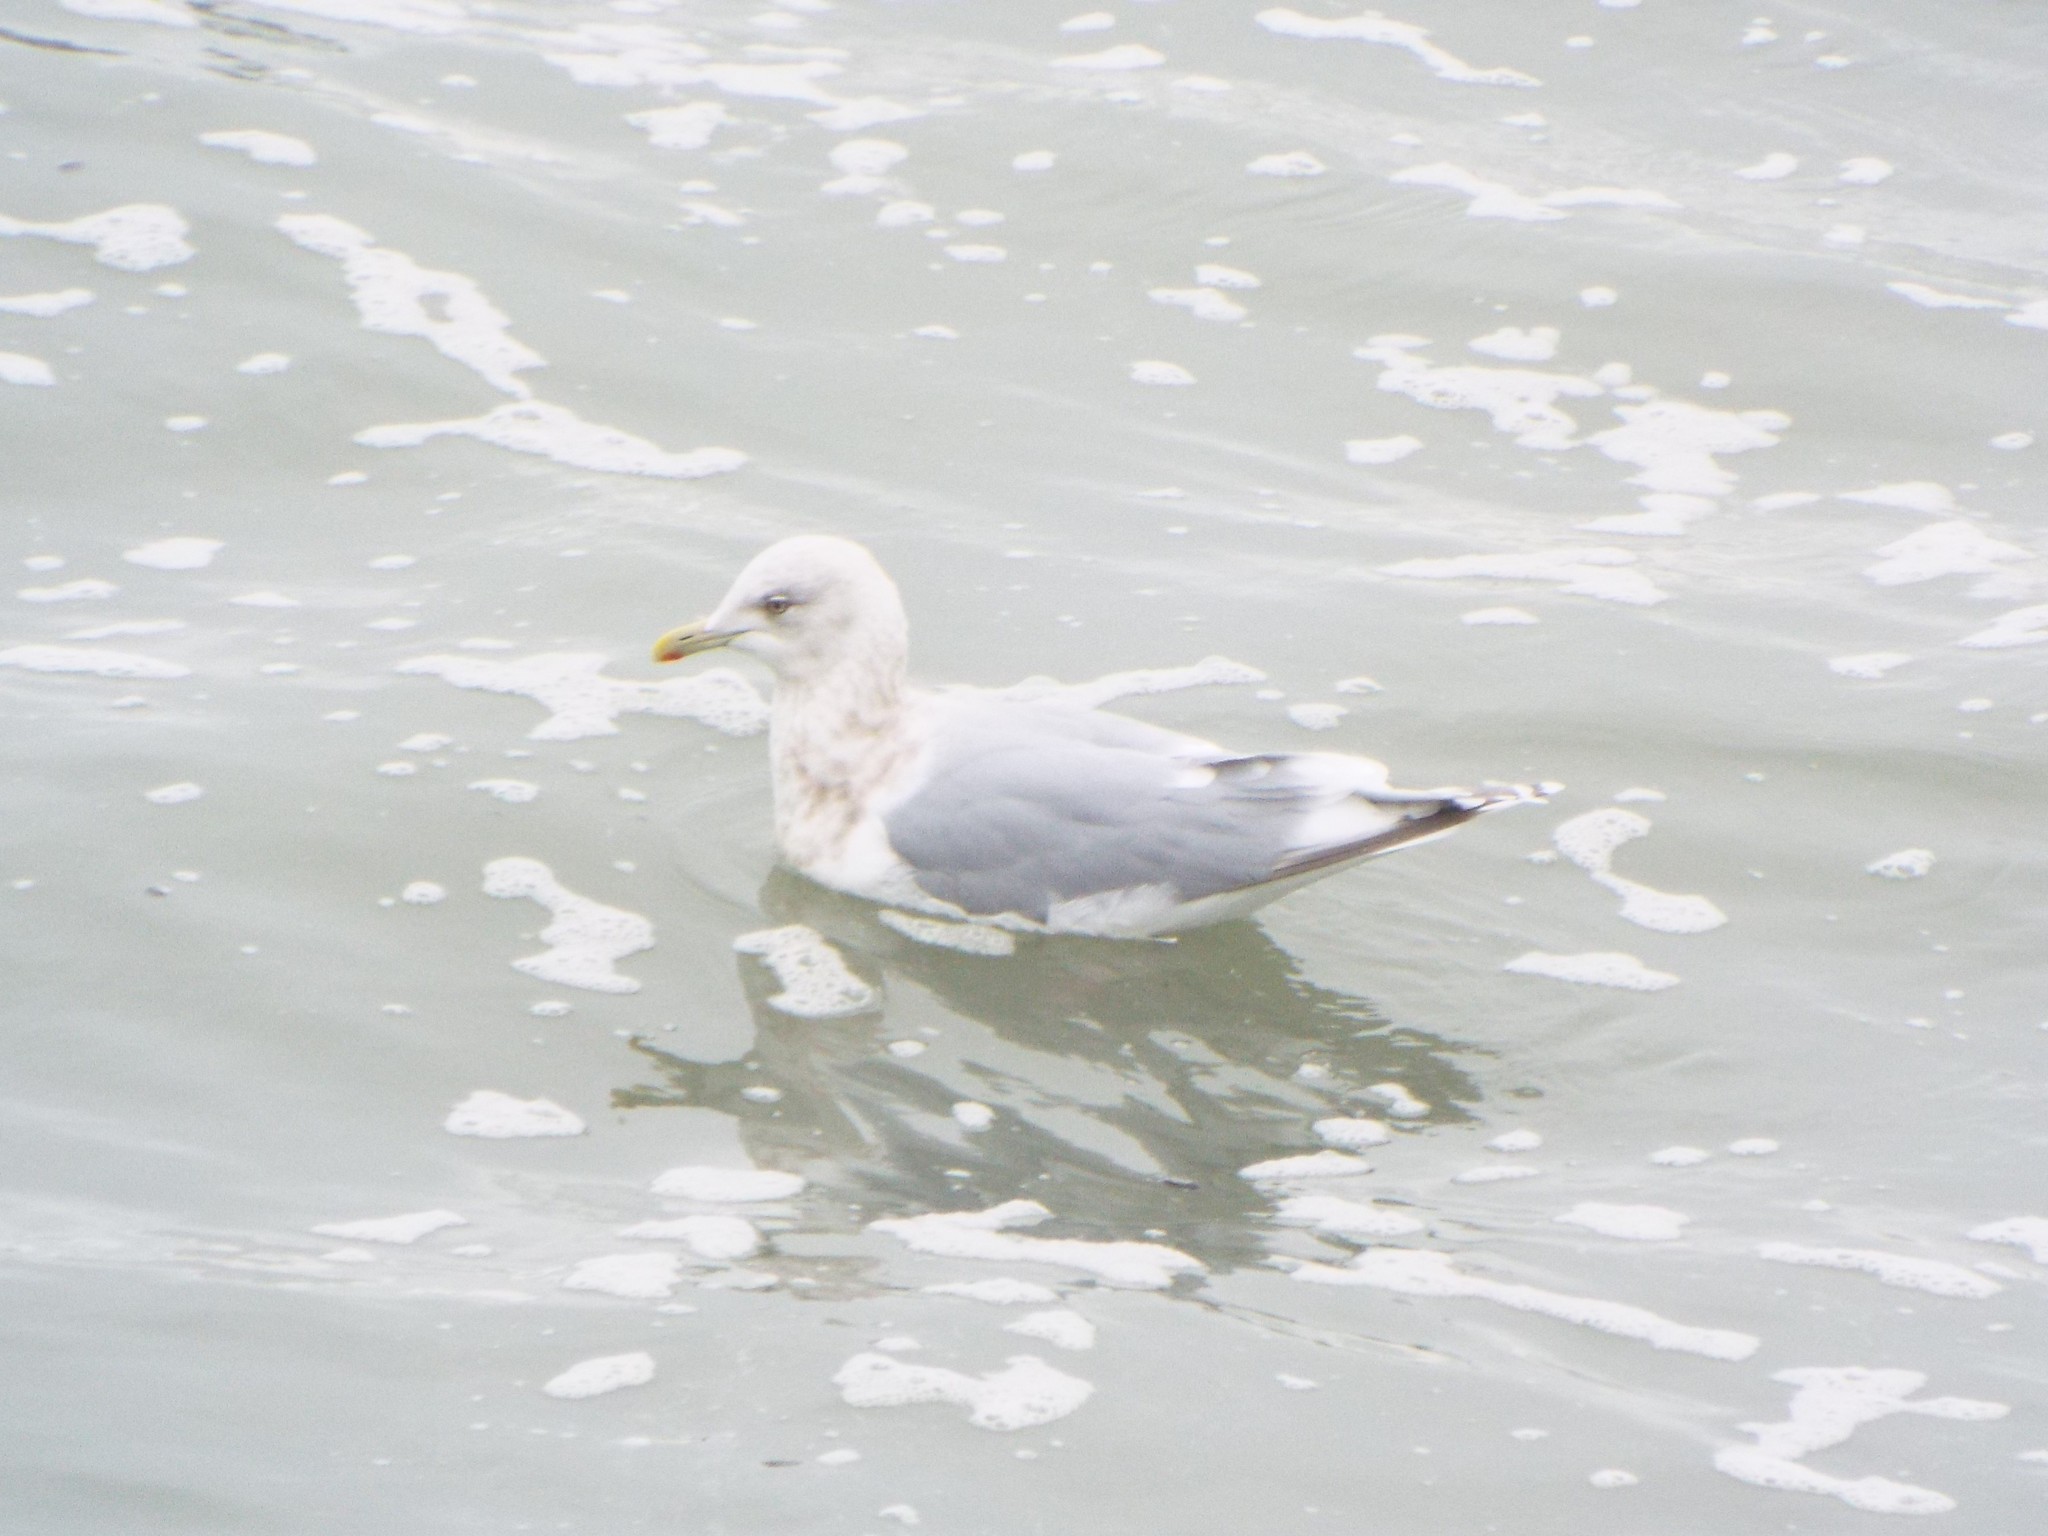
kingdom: Animalia
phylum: Chordata
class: Aves
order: Charadriiformes
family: Laridae
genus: Larus
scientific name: Larus glaucoides
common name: Iceland gull
